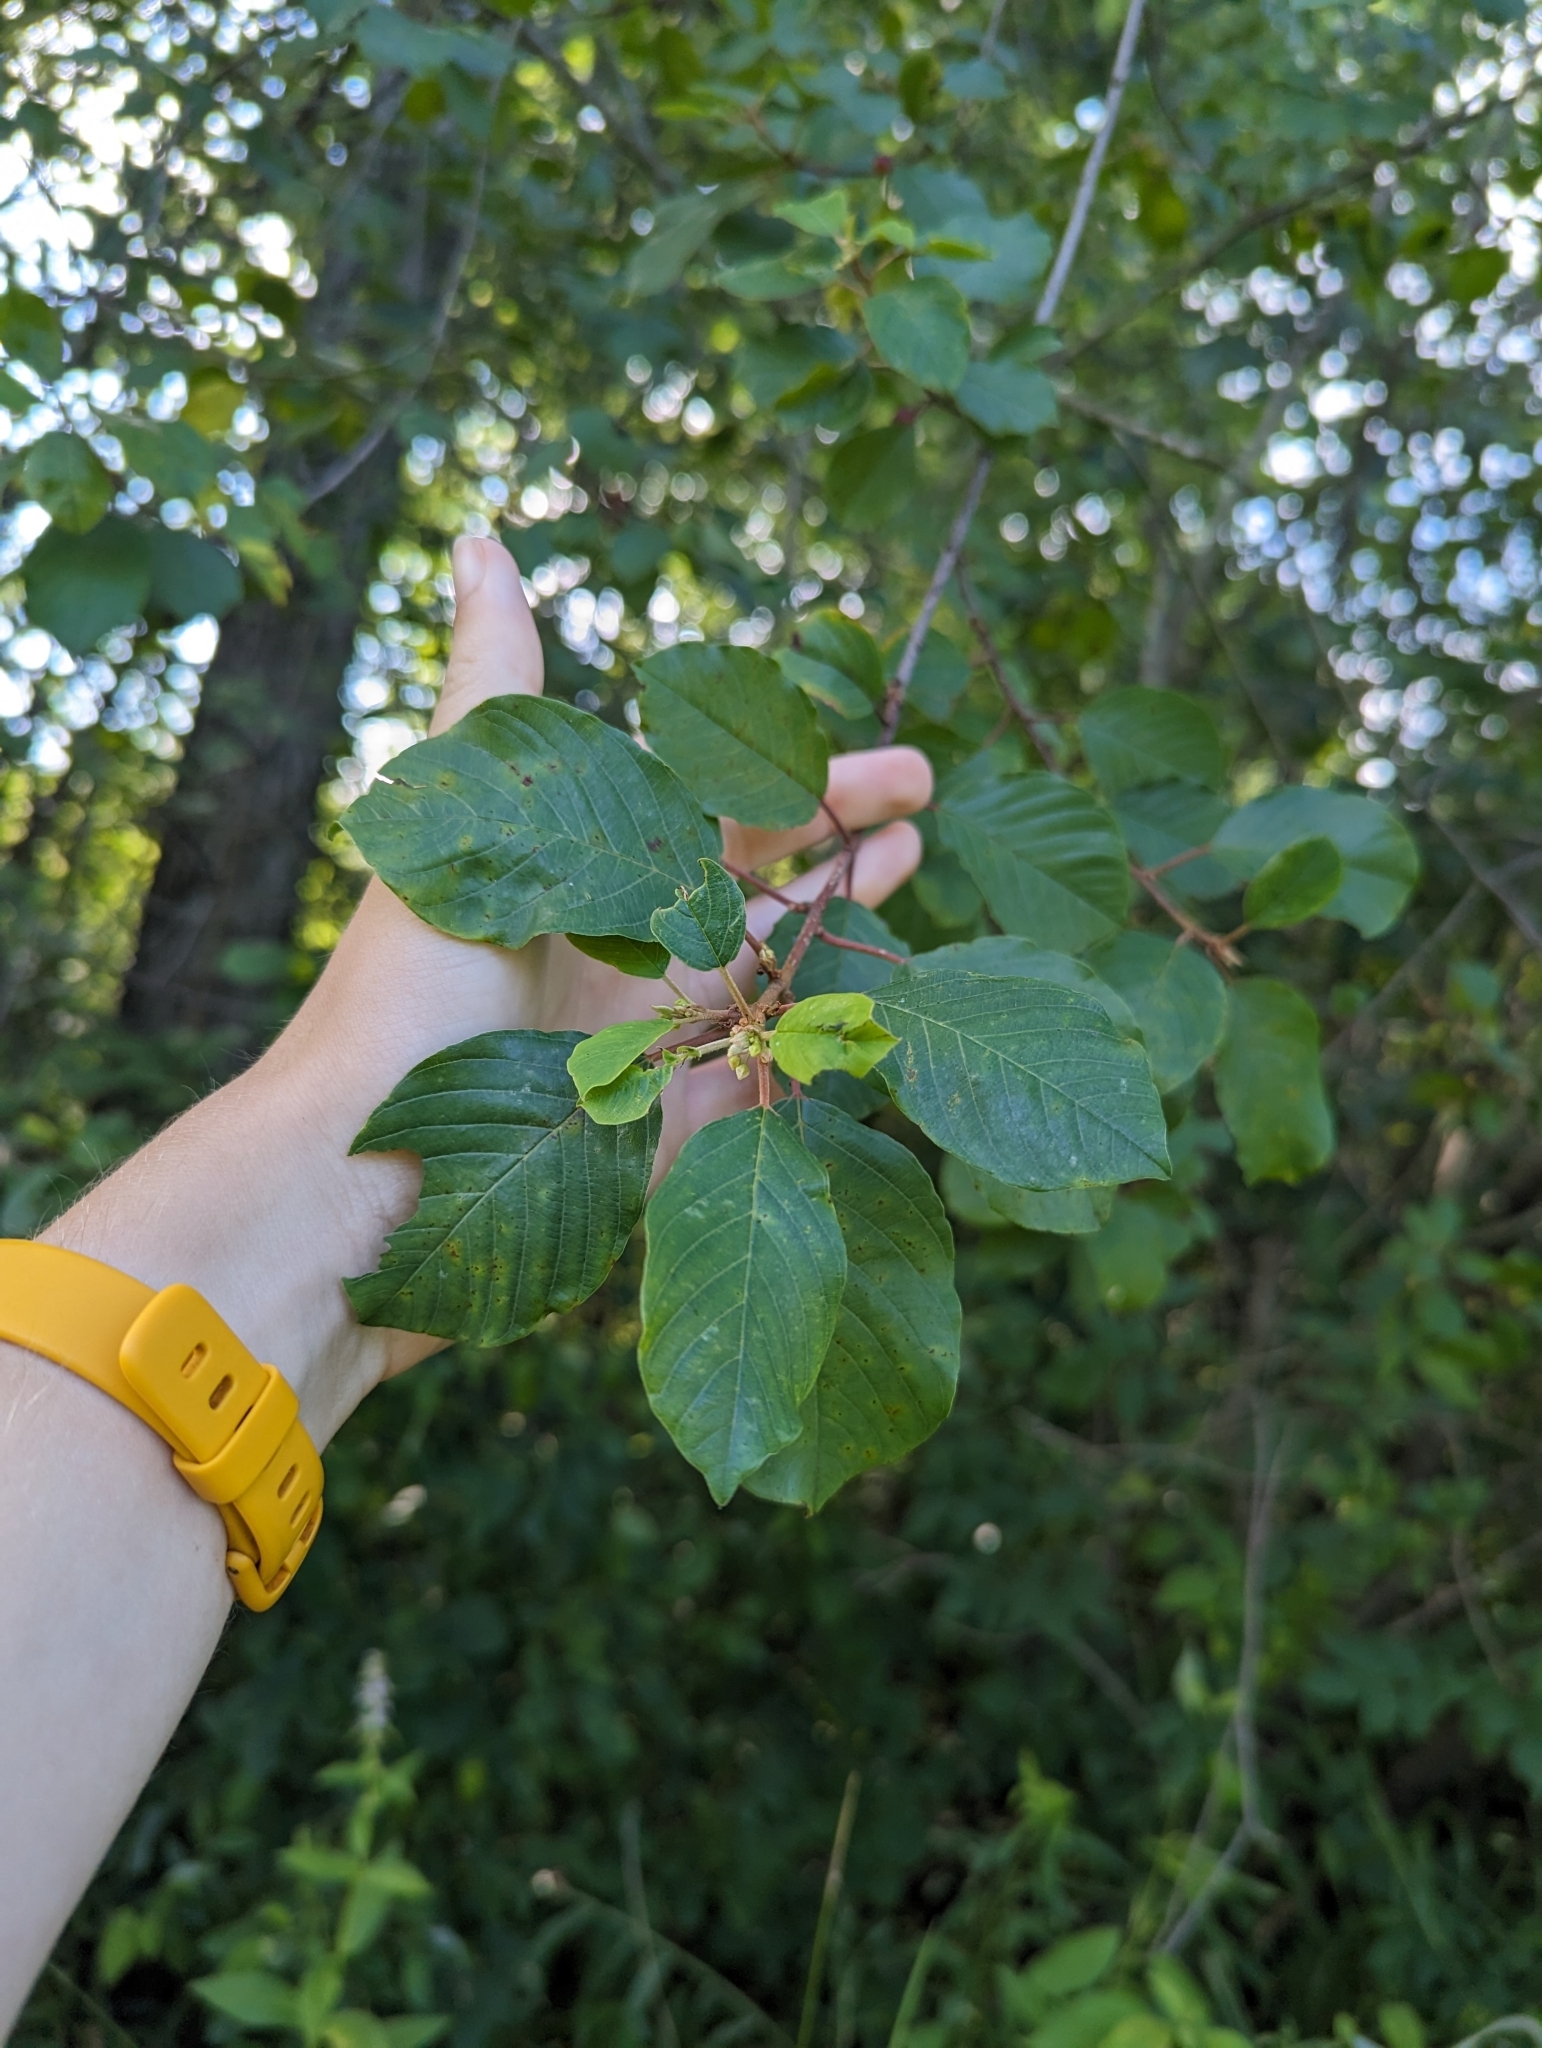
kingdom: Plantae
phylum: Tracheophyta
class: Magnoliopsida
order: Rosales
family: Rhamnaceae
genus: Frangula
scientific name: Frangula alnus
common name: Alder buckthorn
